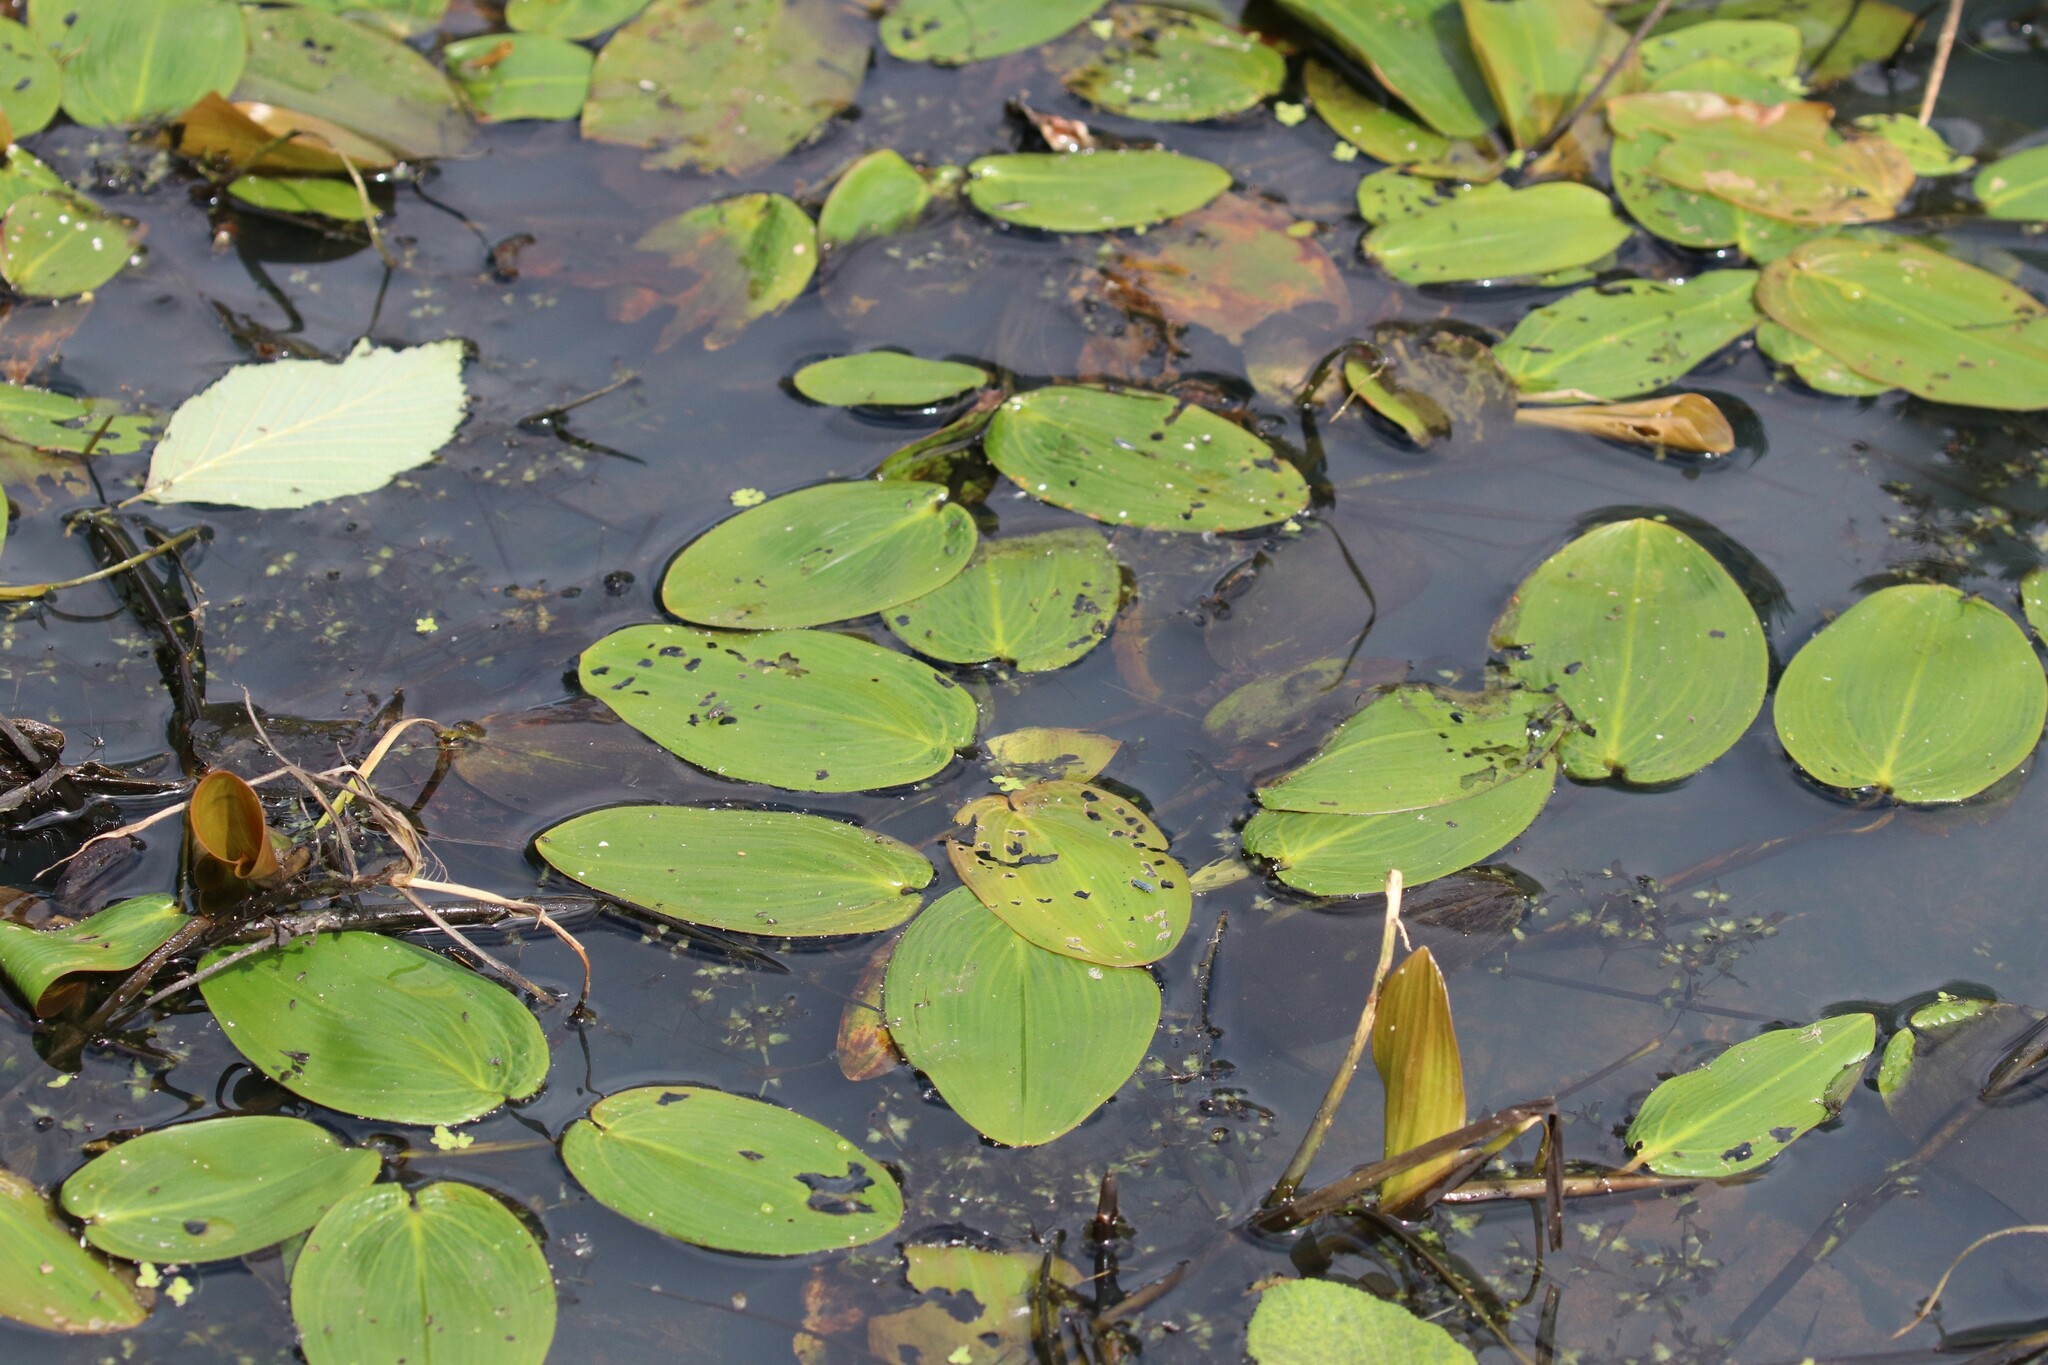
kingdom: Plantae
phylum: Tracheophyta
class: Liliopsida
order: Alismatales
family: Potamogetonaceae
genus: Potamogeton
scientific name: Potamogeton natans
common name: Broad-leaved pondweed
